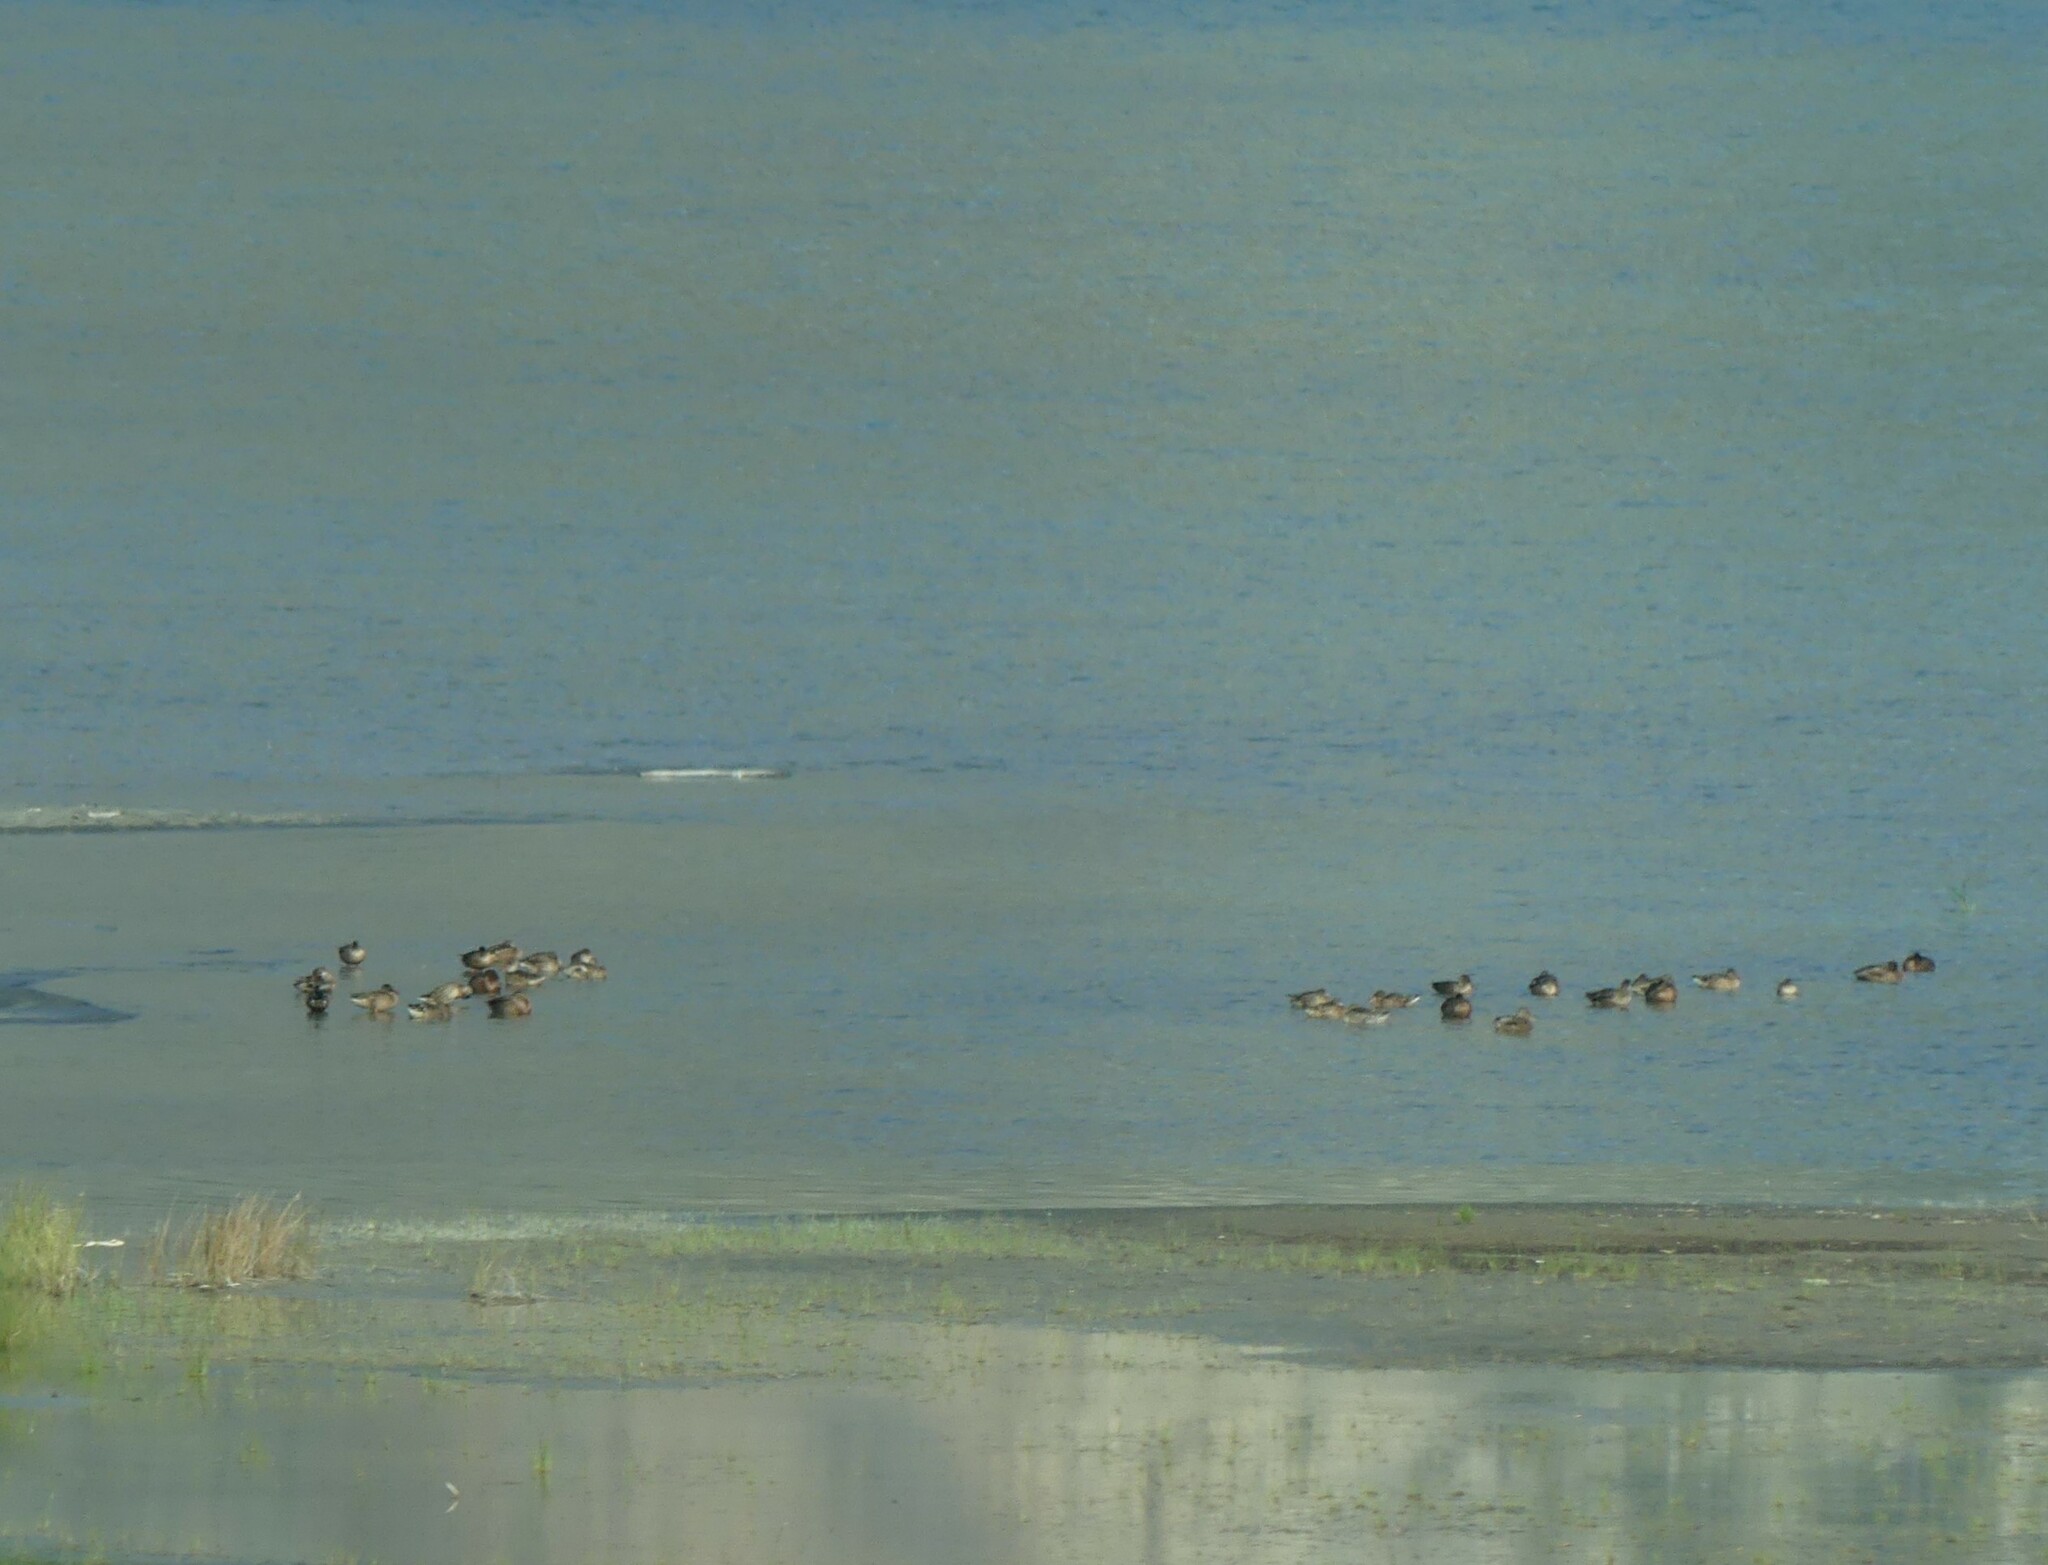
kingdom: Animalia
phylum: Chordata
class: Aves
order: Anseriformes
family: Anatidae
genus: Anas
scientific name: Anas platyrhynchos
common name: Mallard
